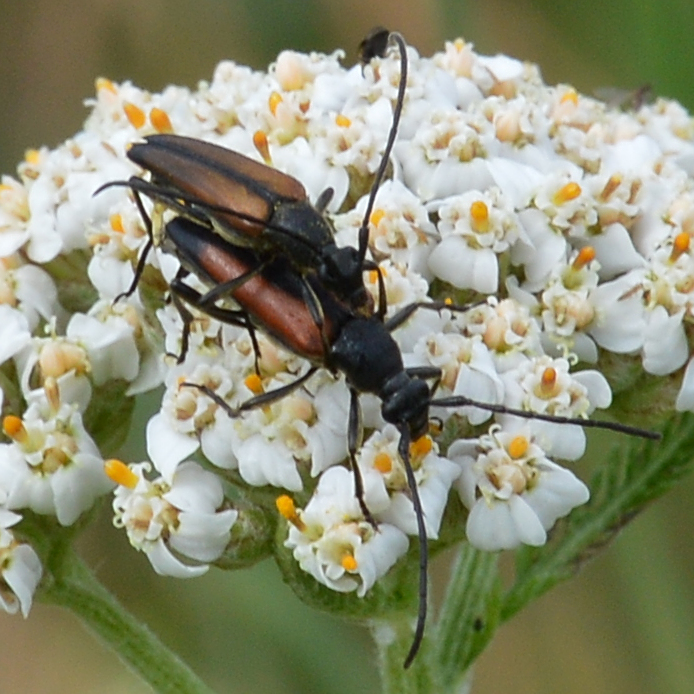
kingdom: Animalia
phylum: Arthropoda
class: Insecta
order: Coleoptera
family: Cerambycidae
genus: Stenurella
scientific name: Stenurella melanura
